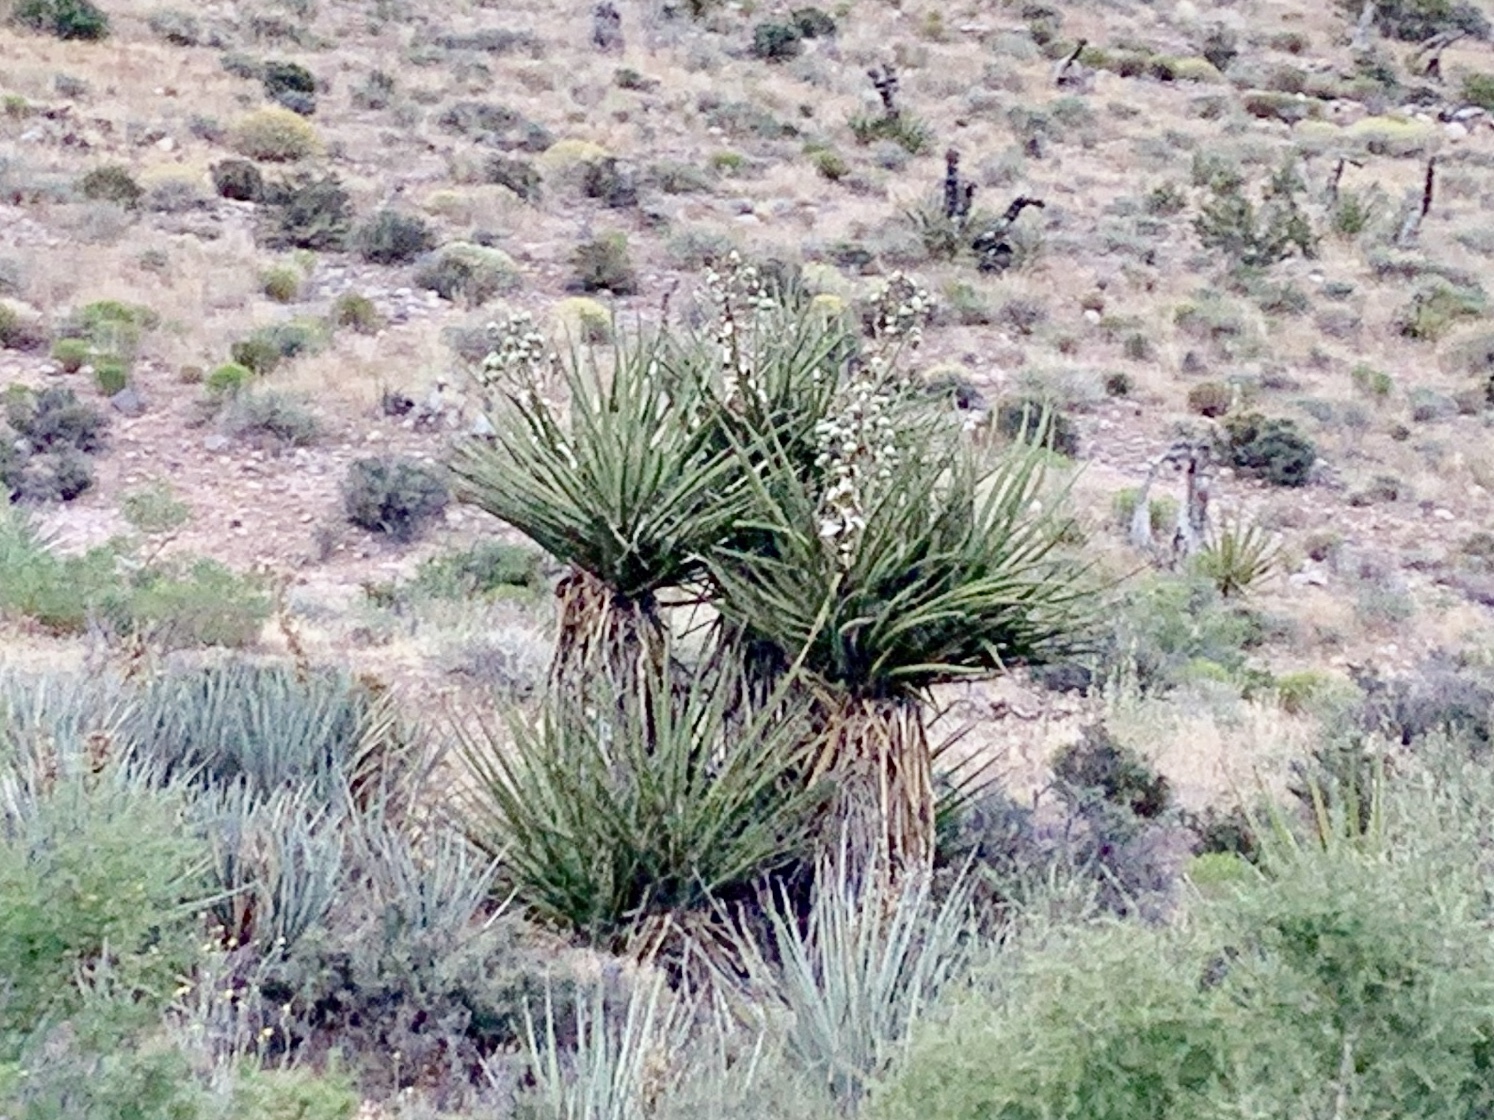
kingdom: Plantae
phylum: Tracheophyta
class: Liliopsida
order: Asparagales
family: Asparagaceae
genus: Yucca
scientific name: Yucca schidigera
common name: Mojave yucca
